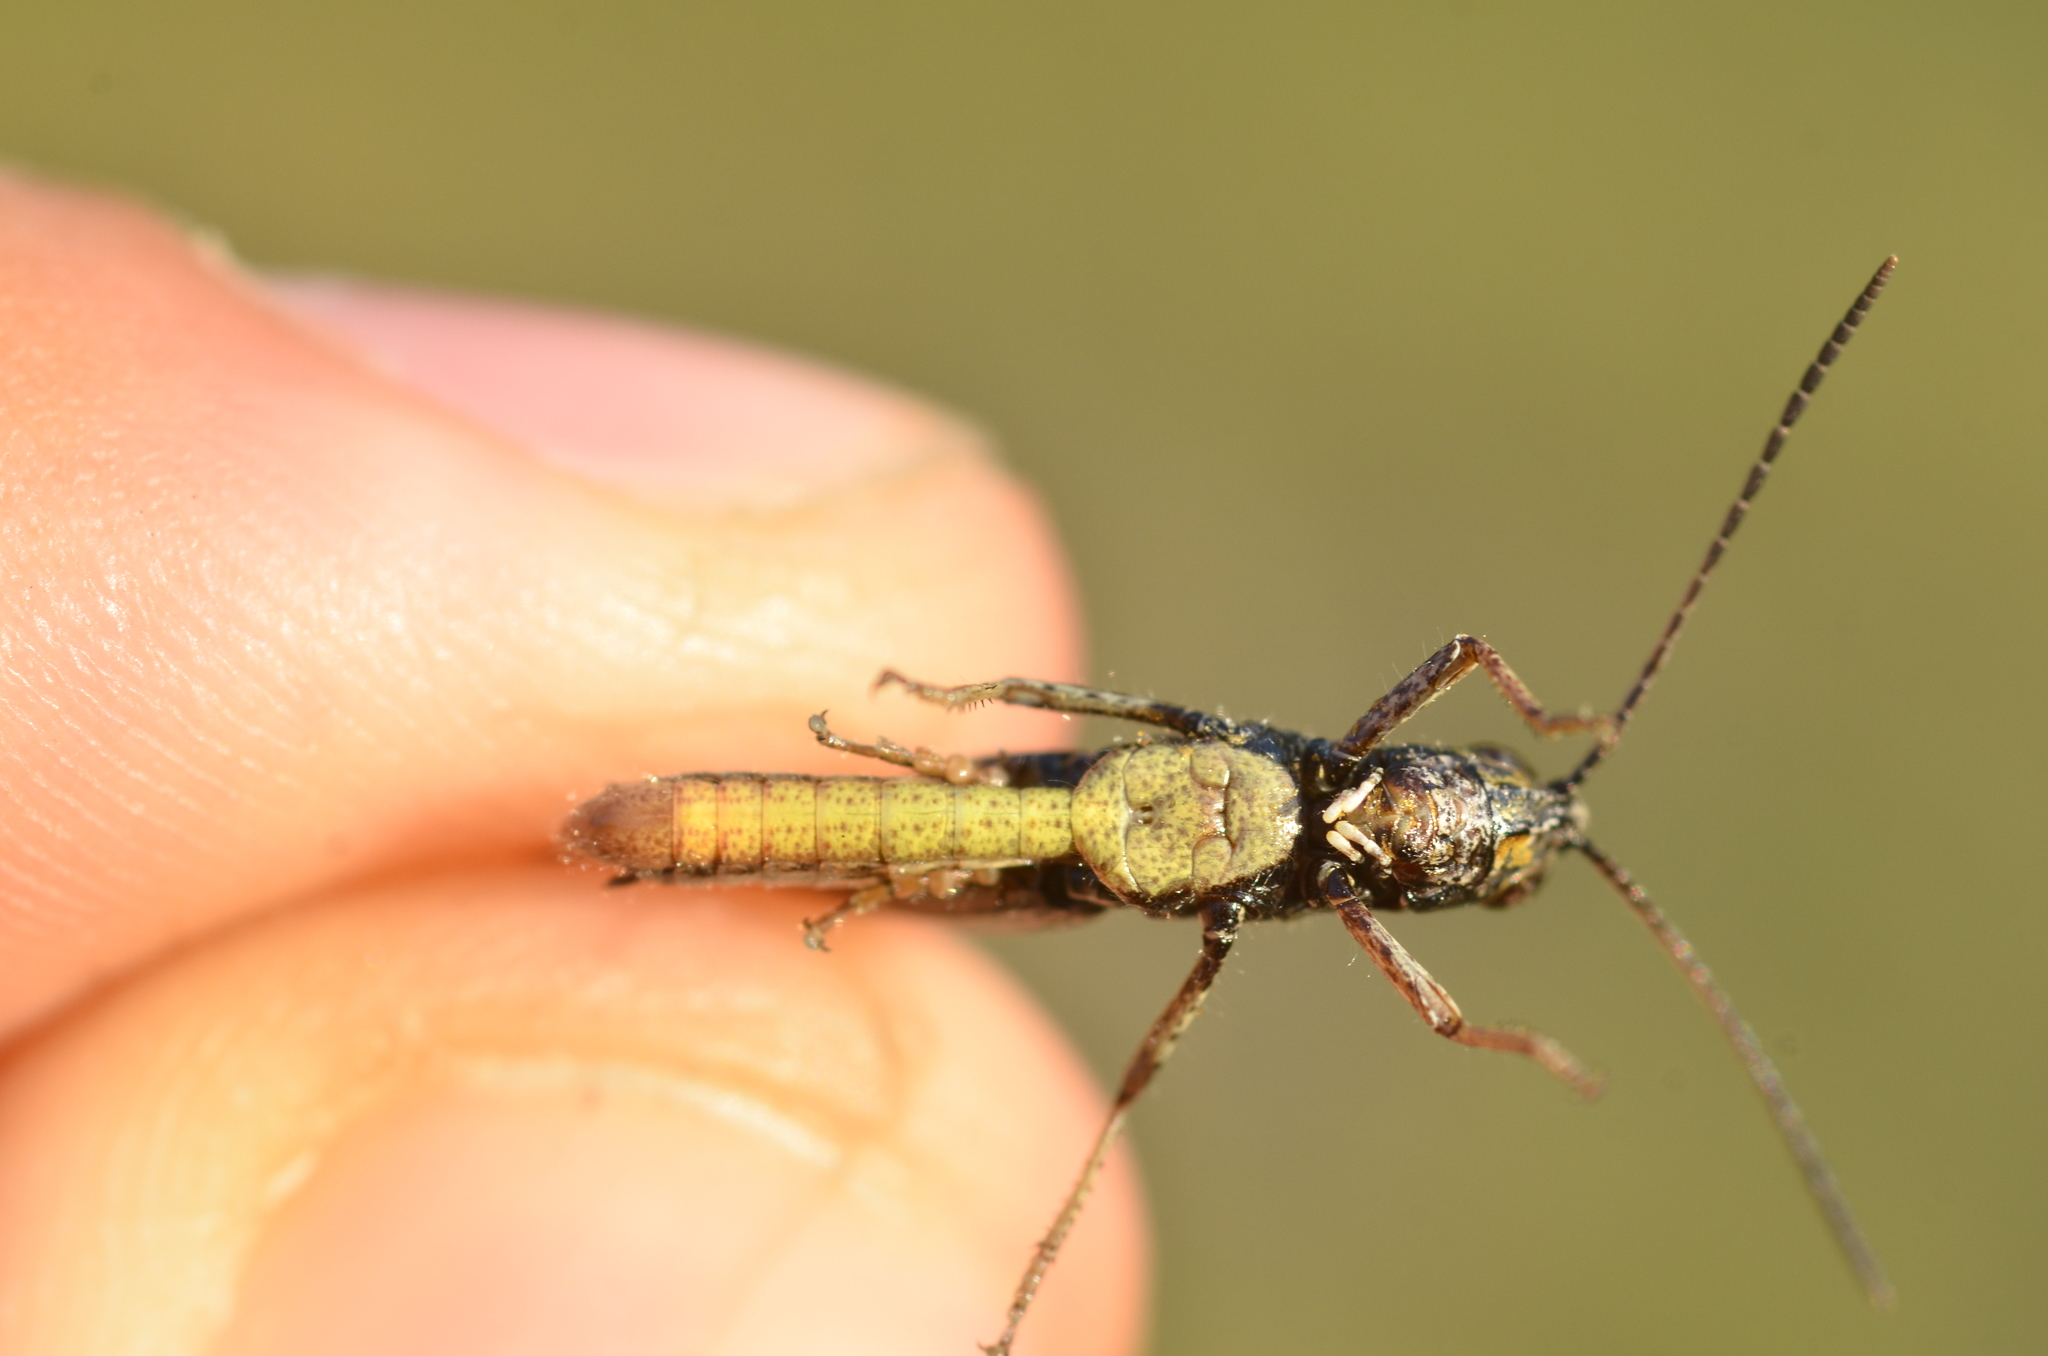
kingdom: Animalia
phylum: Arthropoda
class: Insecta
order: Orthoptera
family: Acrididae
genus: Omocestus
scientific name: Omocestus rufipes
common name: Woodland grasshopper
